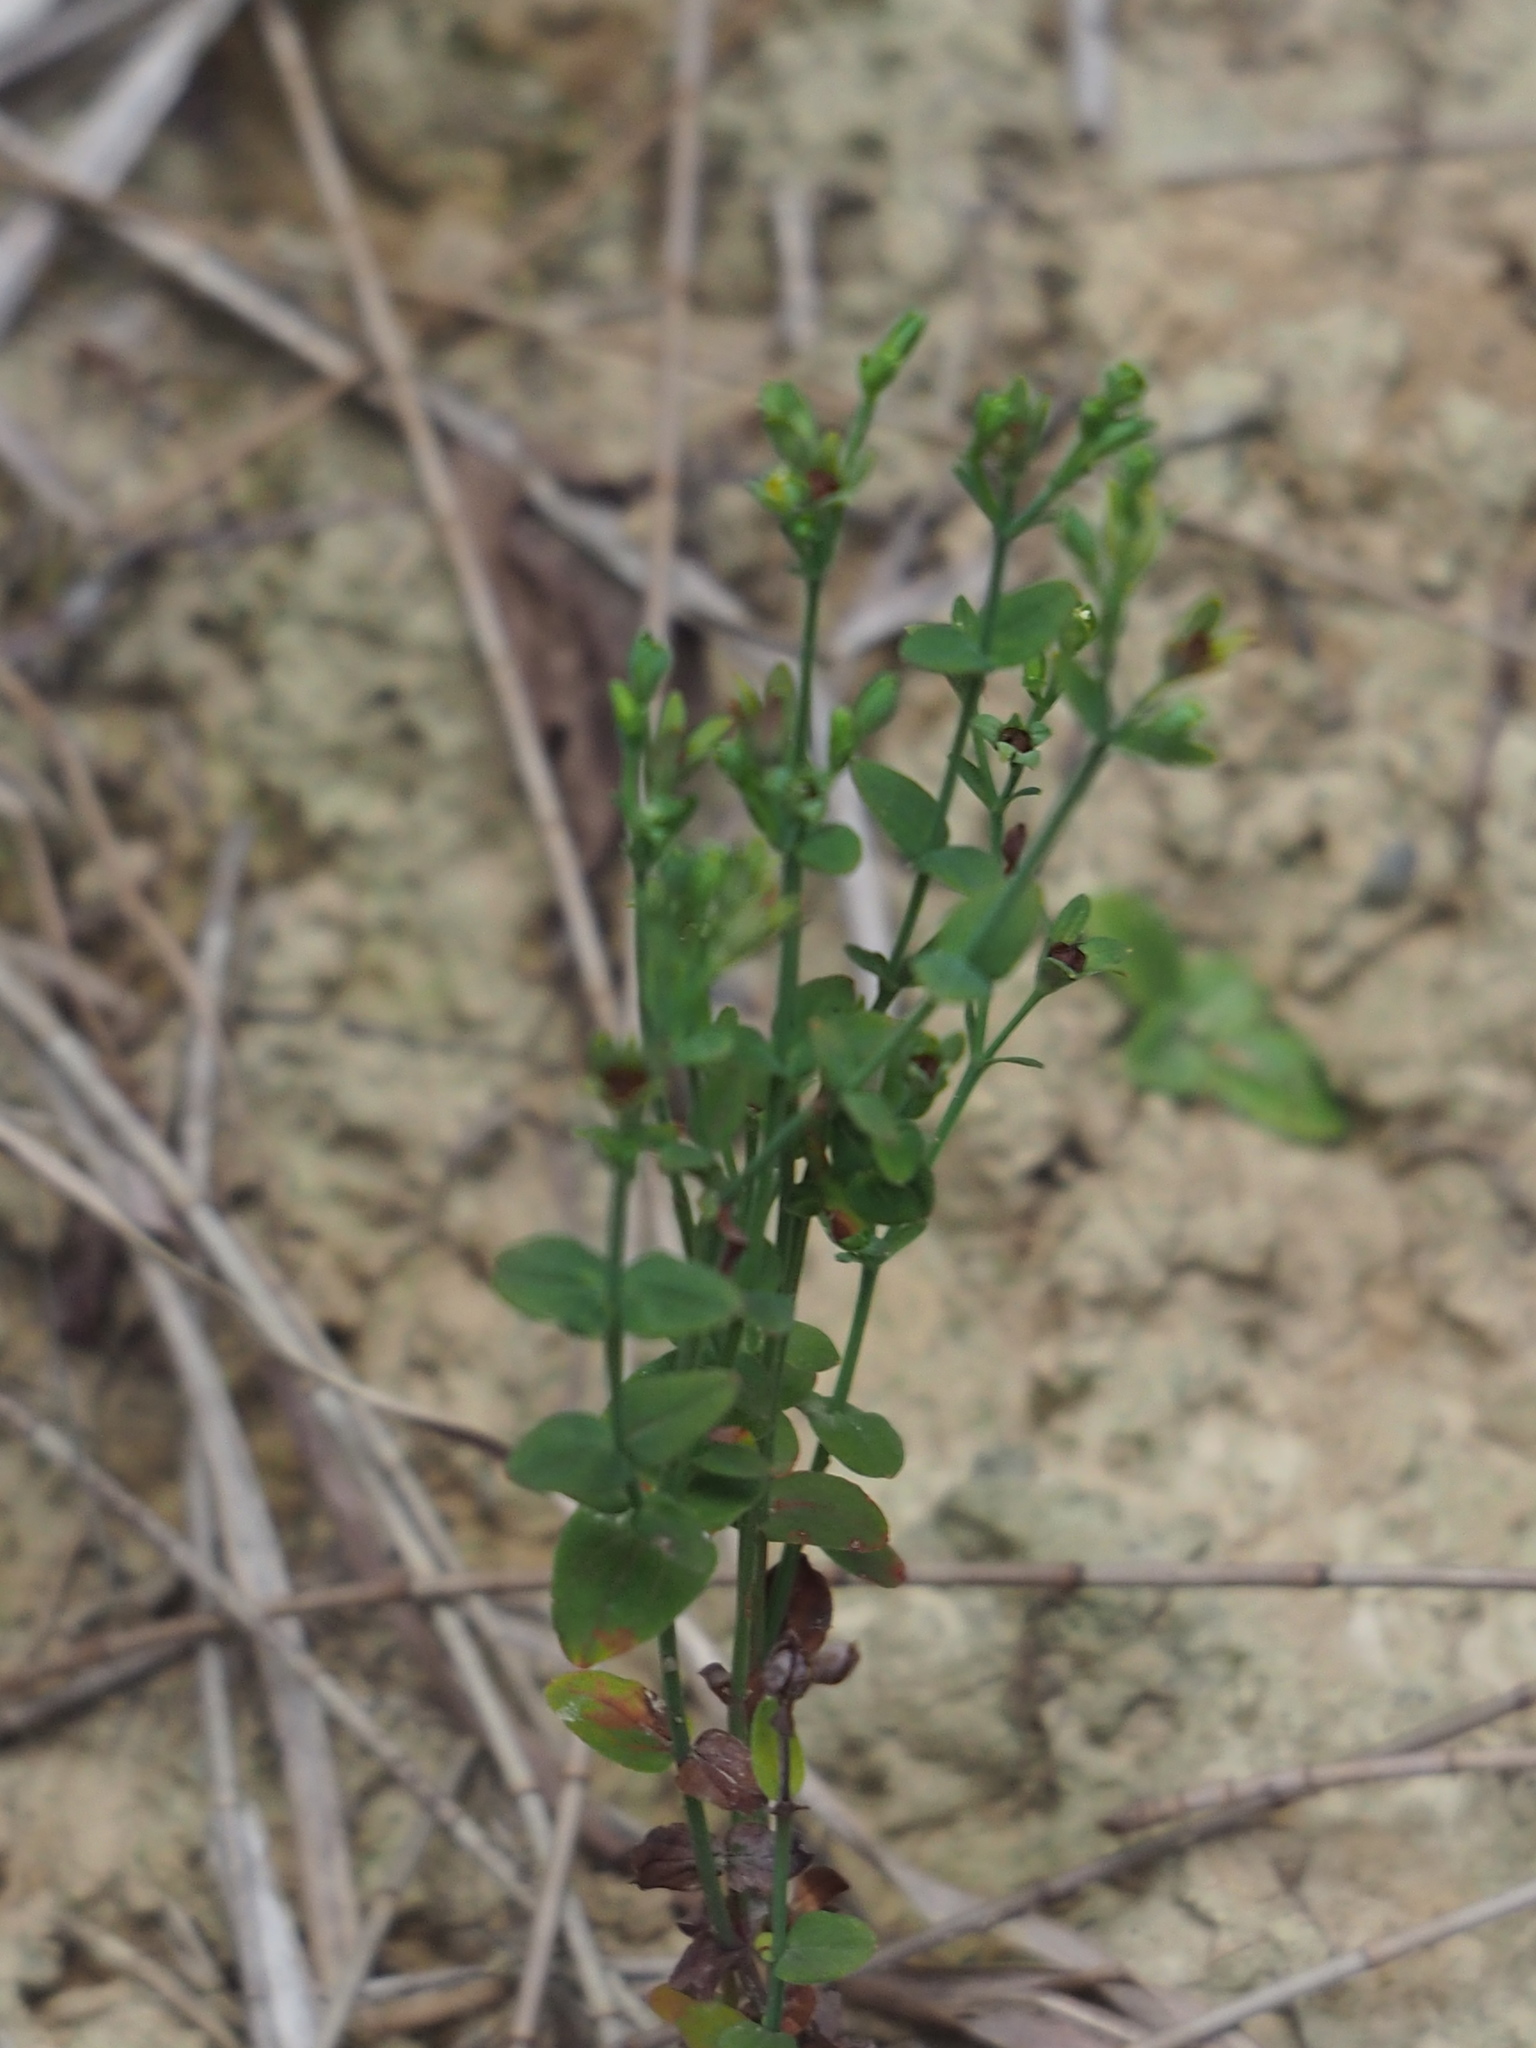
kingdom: Plantae
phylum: Tracheophyta
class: Magnoliopsida
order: Malpighiales
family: Hypericaceae
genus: Hypericum
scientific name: Hypericum japonicum
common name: Matted st. john's-wort
